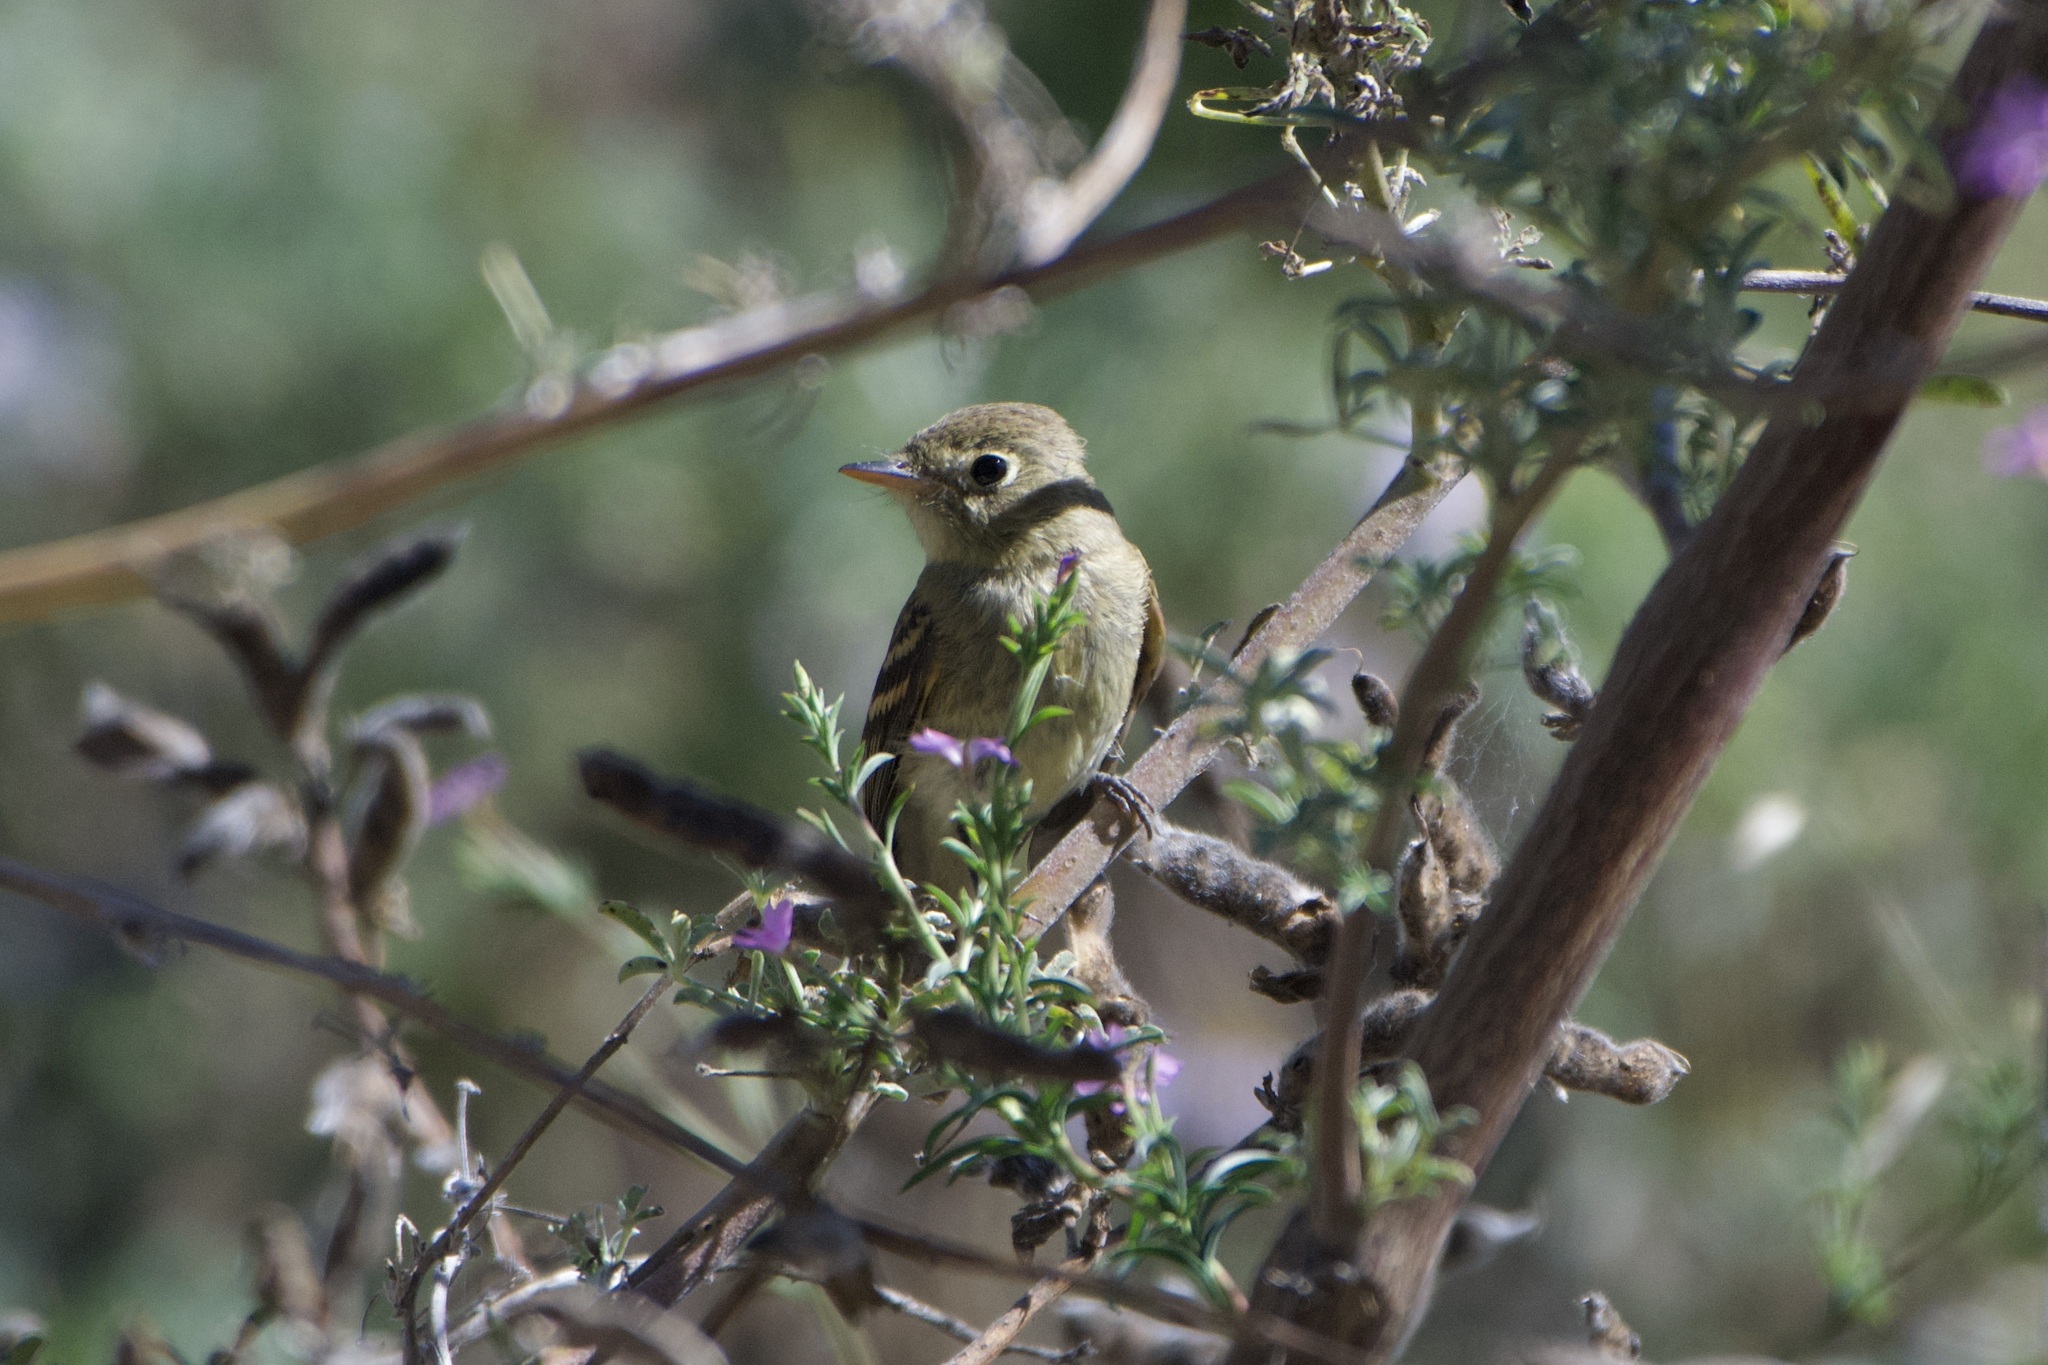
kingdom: Animalia
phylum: Chordata
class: Aves
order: Passeriformes
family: Tyrannidae
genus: Empidonax
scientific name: Empidonax difficilis
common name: Pacific-slope flycatcher
